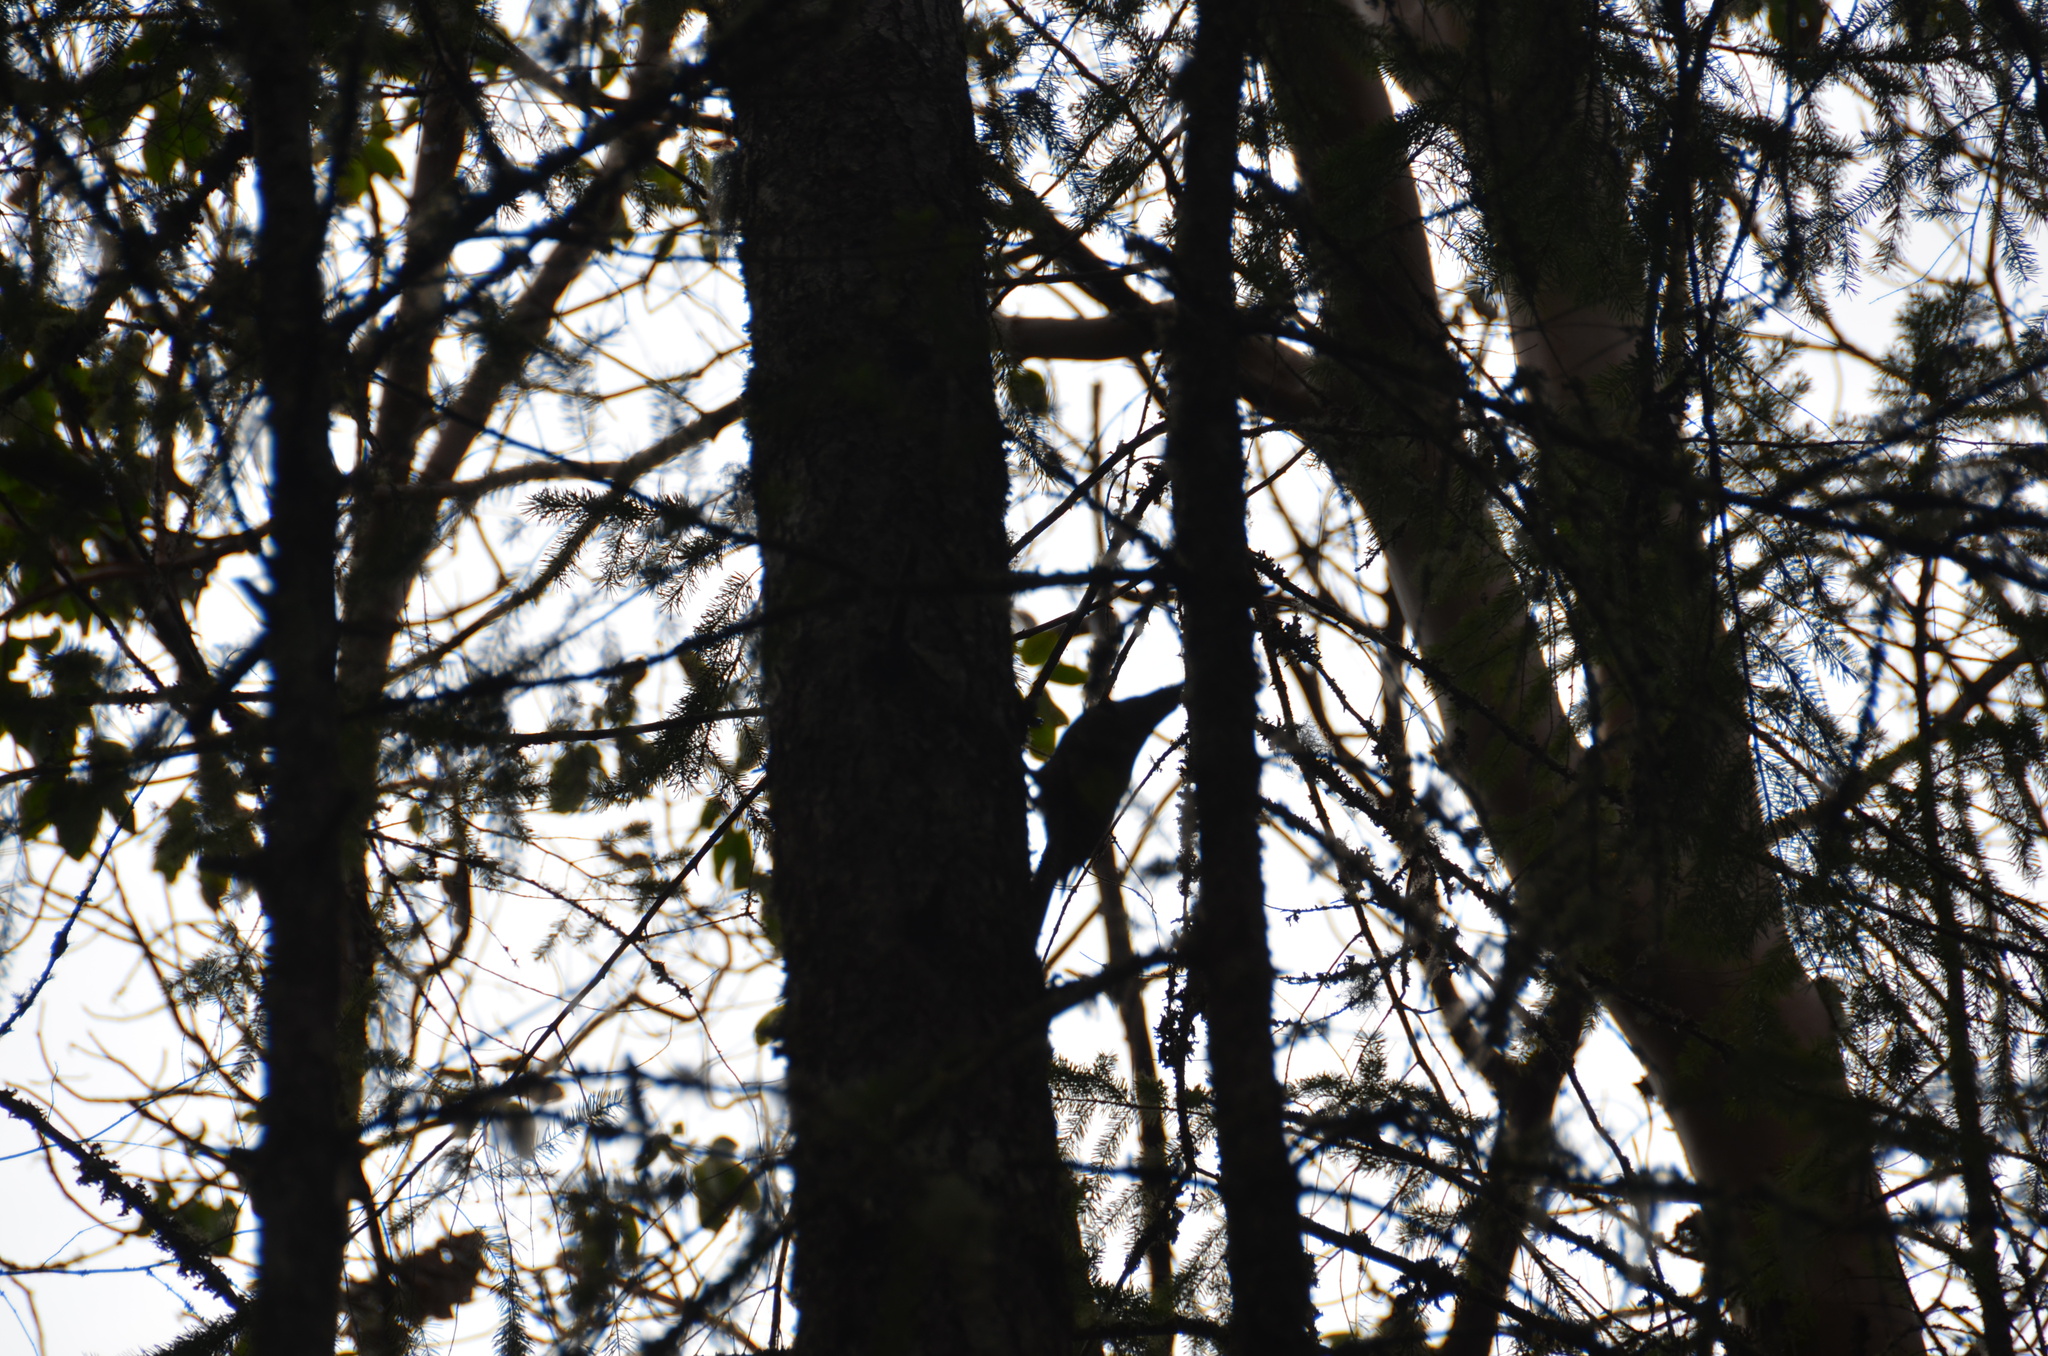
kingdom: Animalia
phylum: Chordata
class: Aves
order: Piciformes
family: Picidae
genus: Colaptes
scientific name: Colaptes auratus
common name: Northern flicker
